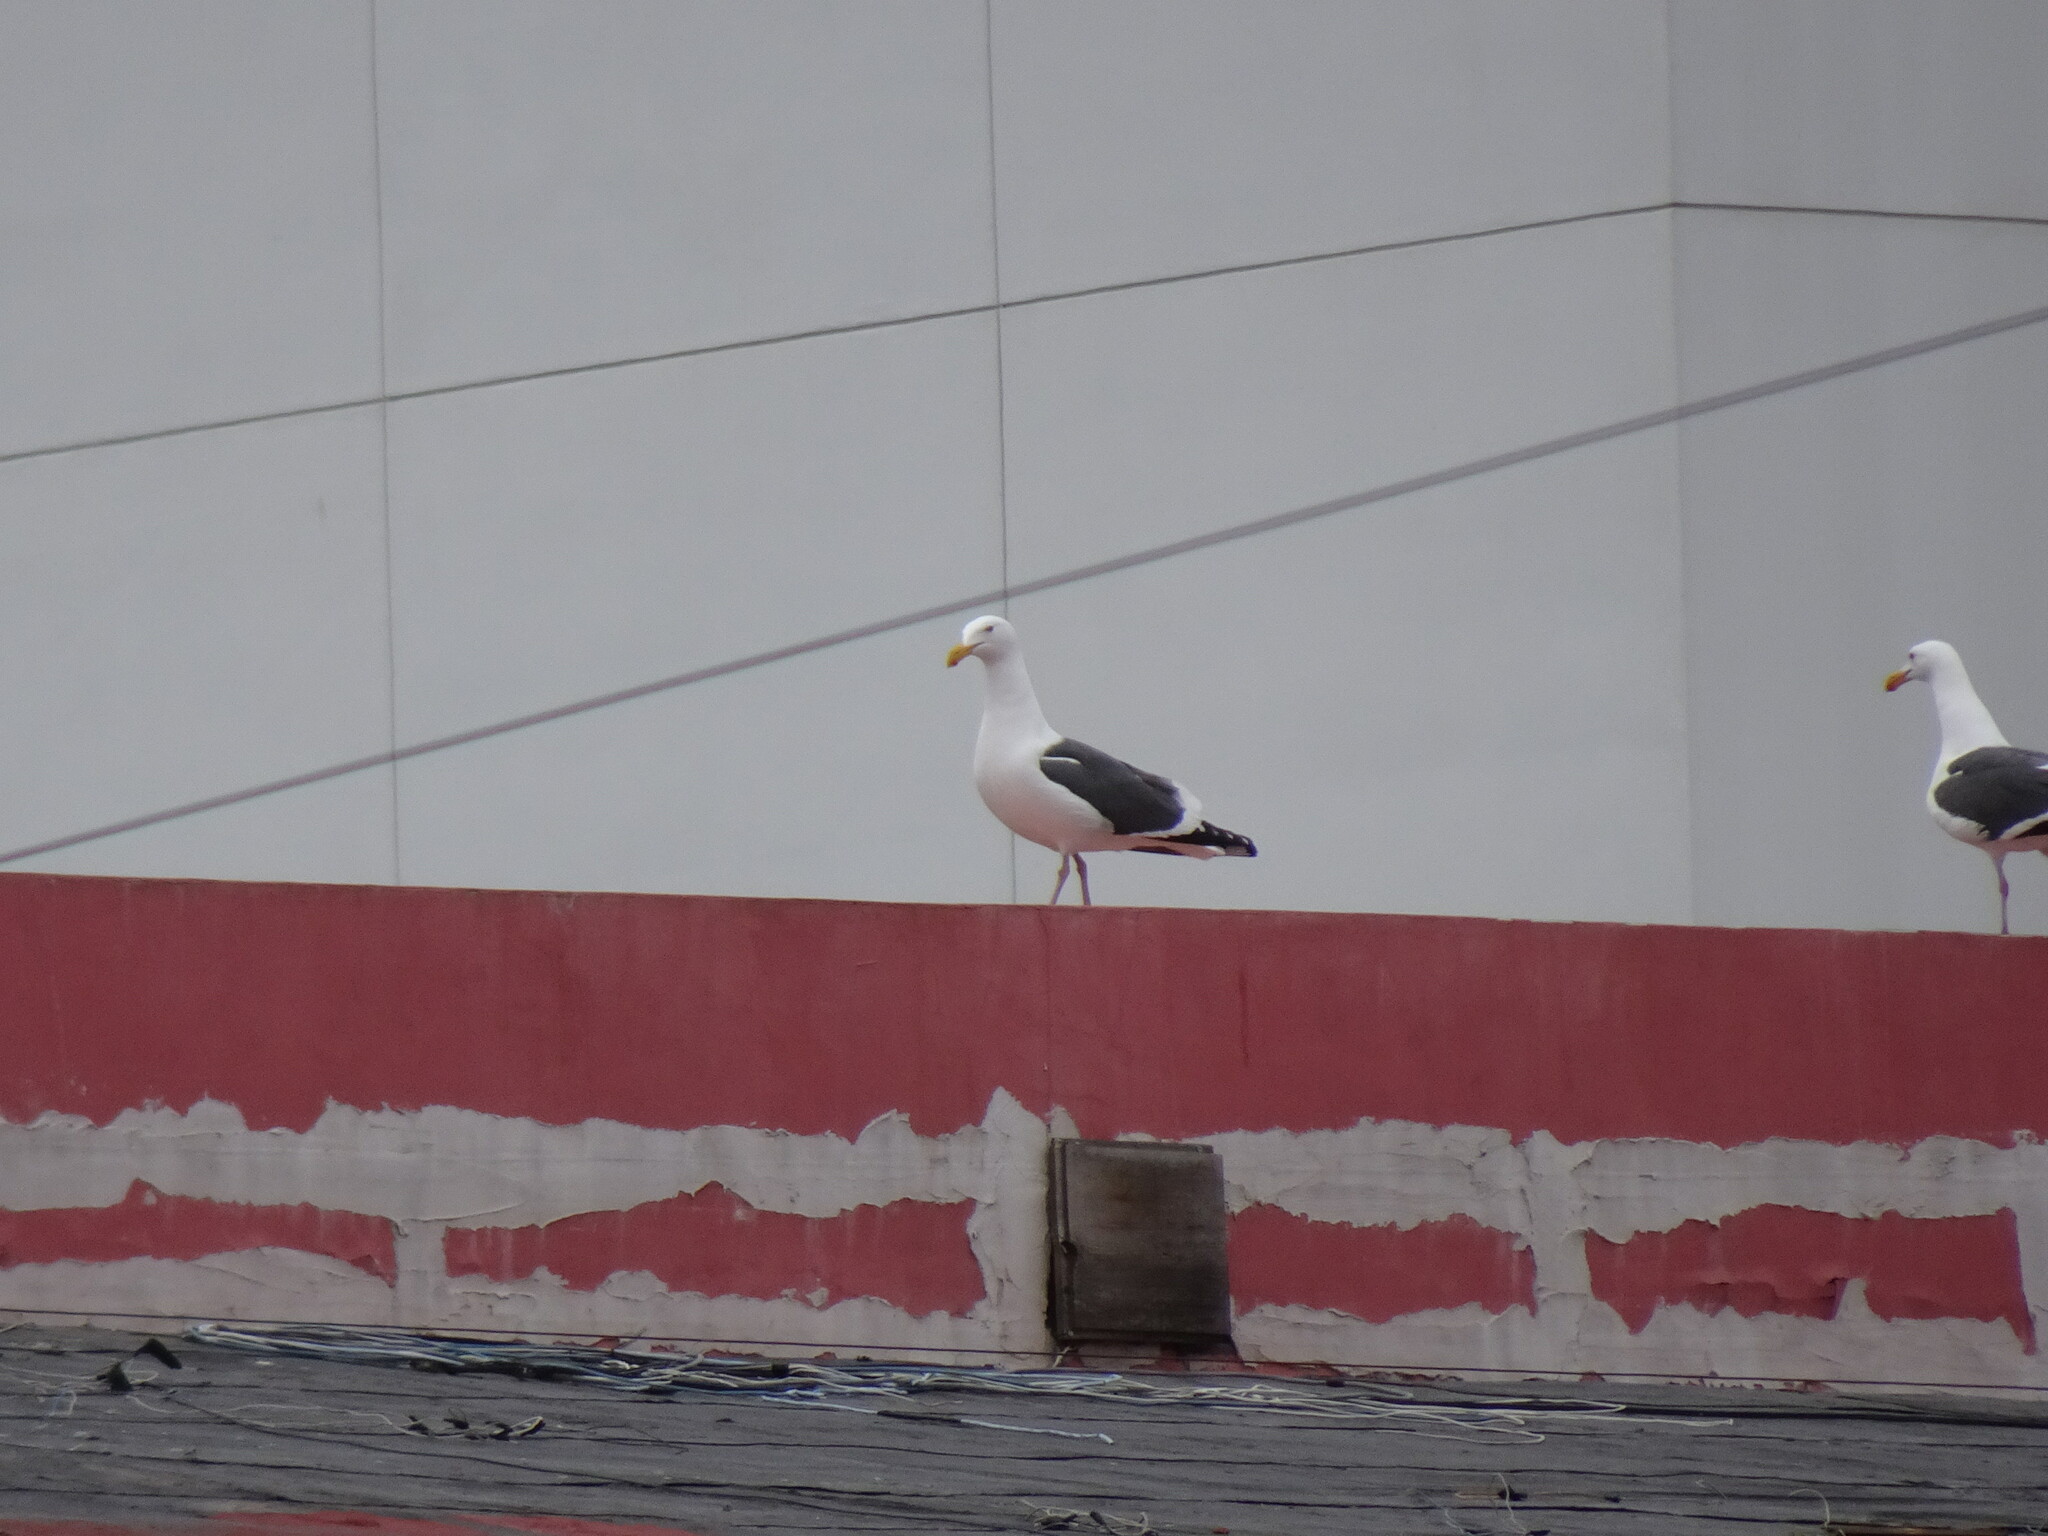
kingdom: Animalia
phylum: Chordata
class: Aves
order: Charadriiformes
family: Laridae
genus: Larus
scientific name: Larus occidentalis
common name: Western gull
